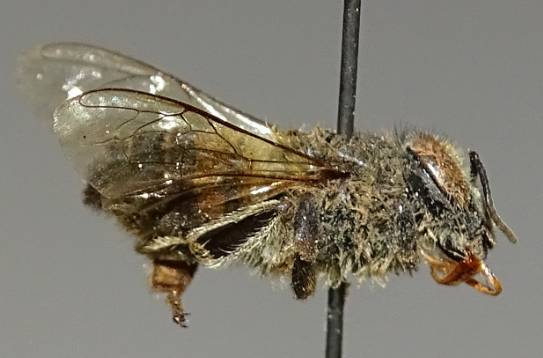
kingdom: Animalia
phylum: Arthropoda
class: Insecta
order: Hymenoptera
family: Apidae
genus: Apis
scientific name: Apis mellifera
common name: Honey bee
